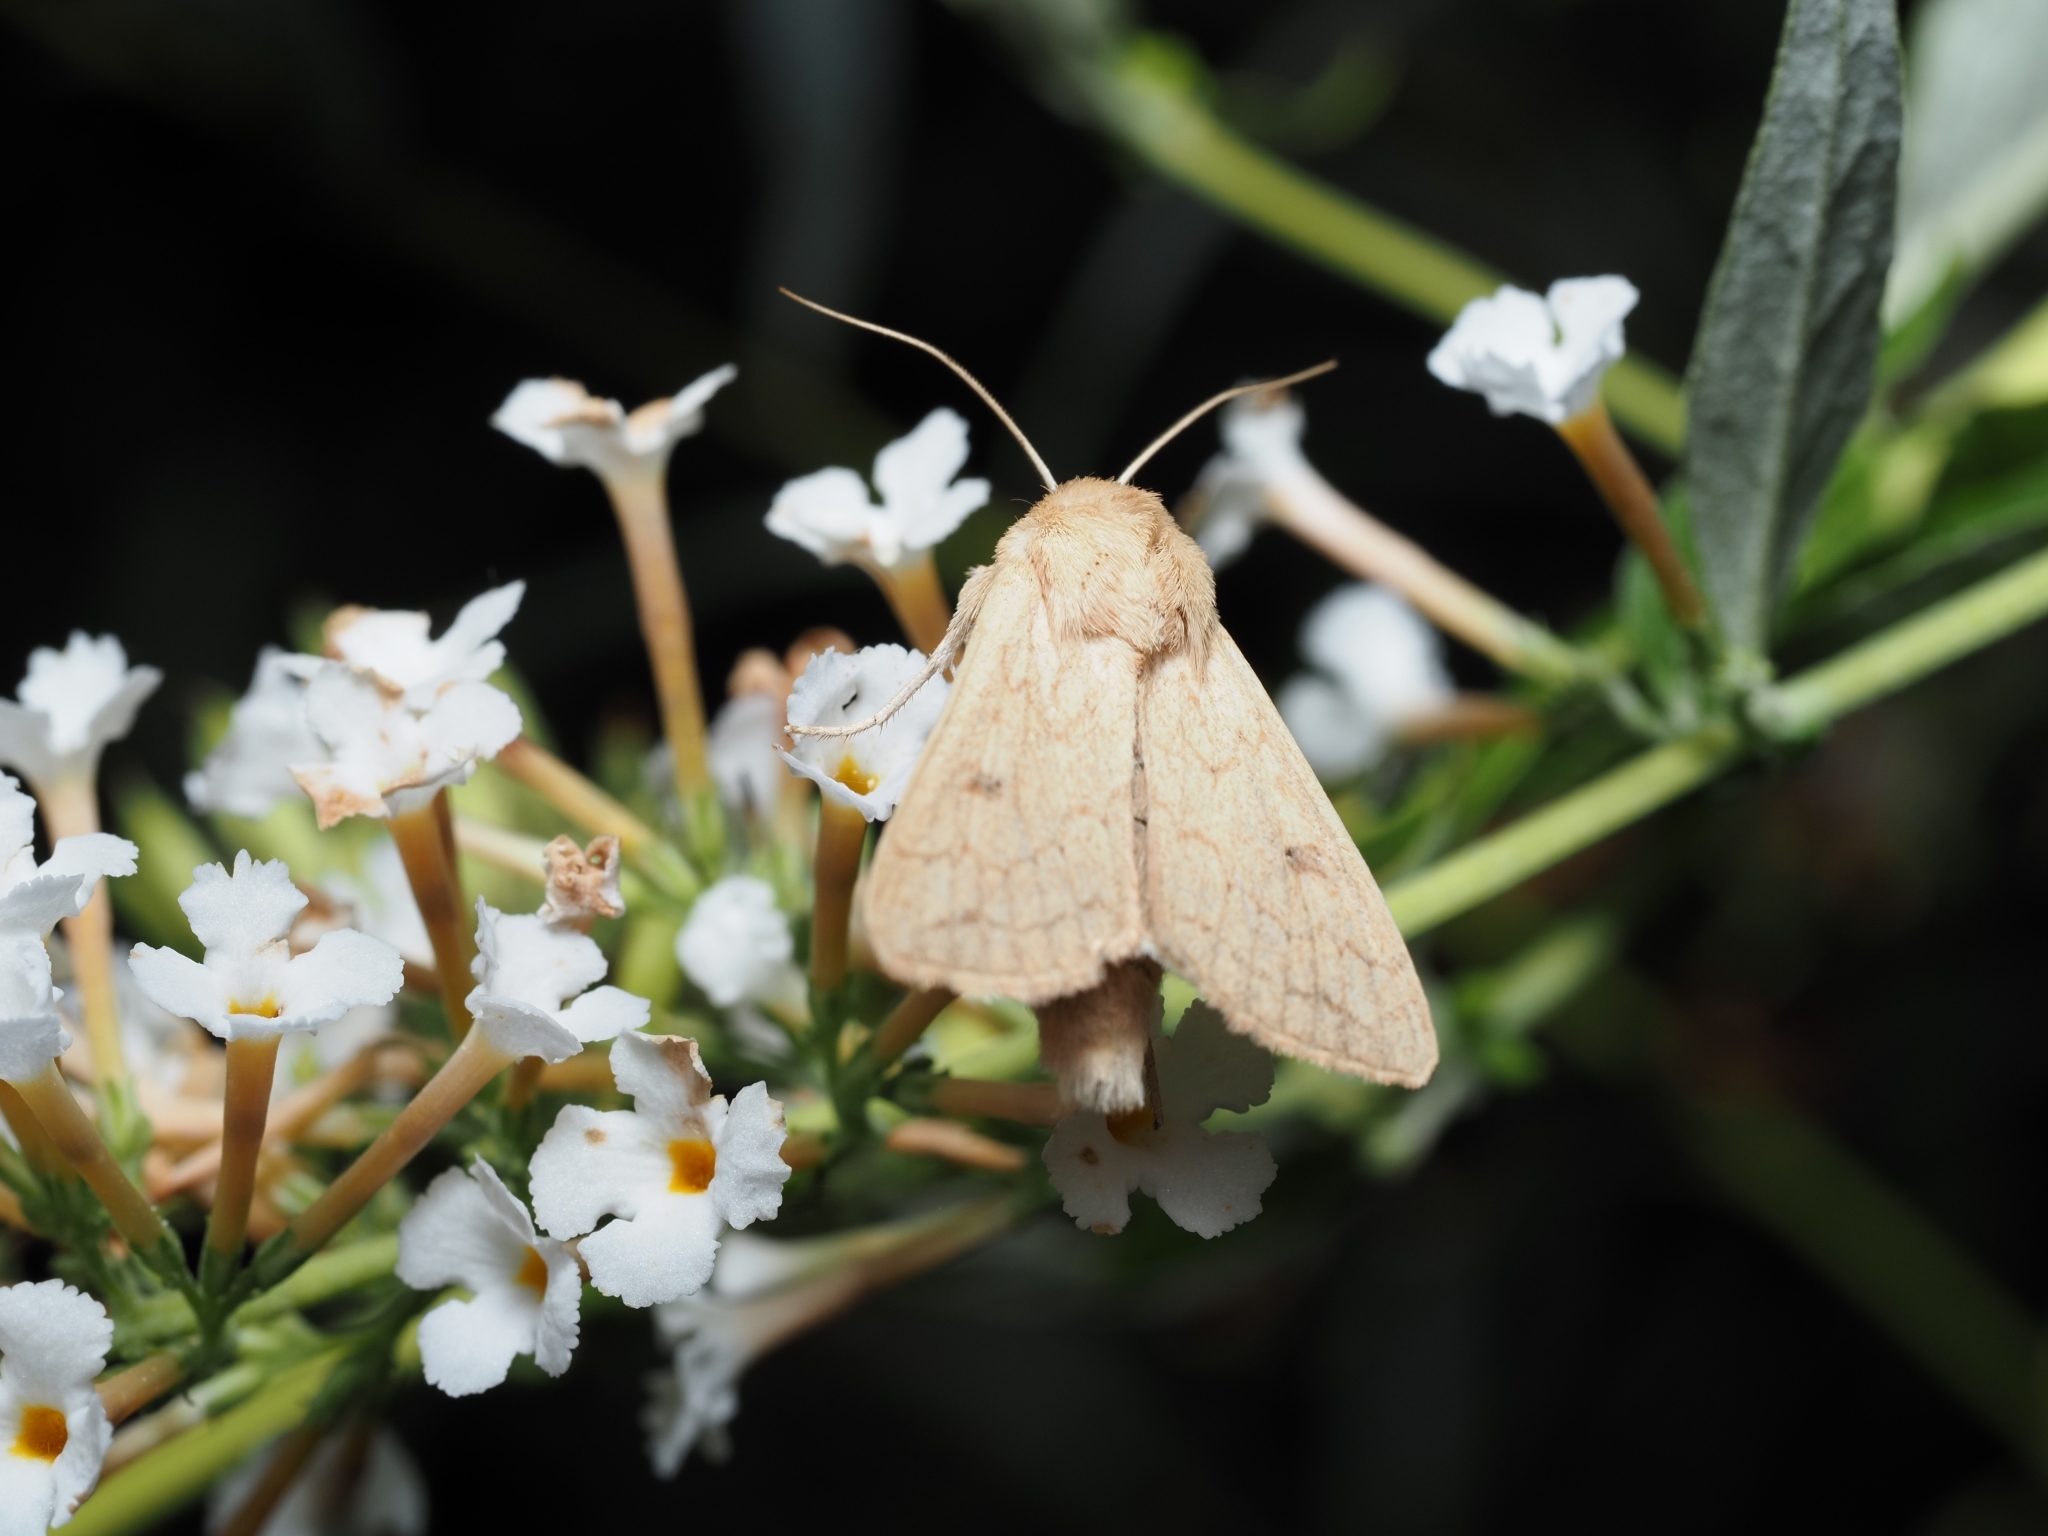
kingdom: Animalia
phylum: Arthropoda
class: Insecta
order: Lepidoptera
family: Noctuidae
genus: Mythimna
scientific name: Mythimna vitellina
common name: Delicate
